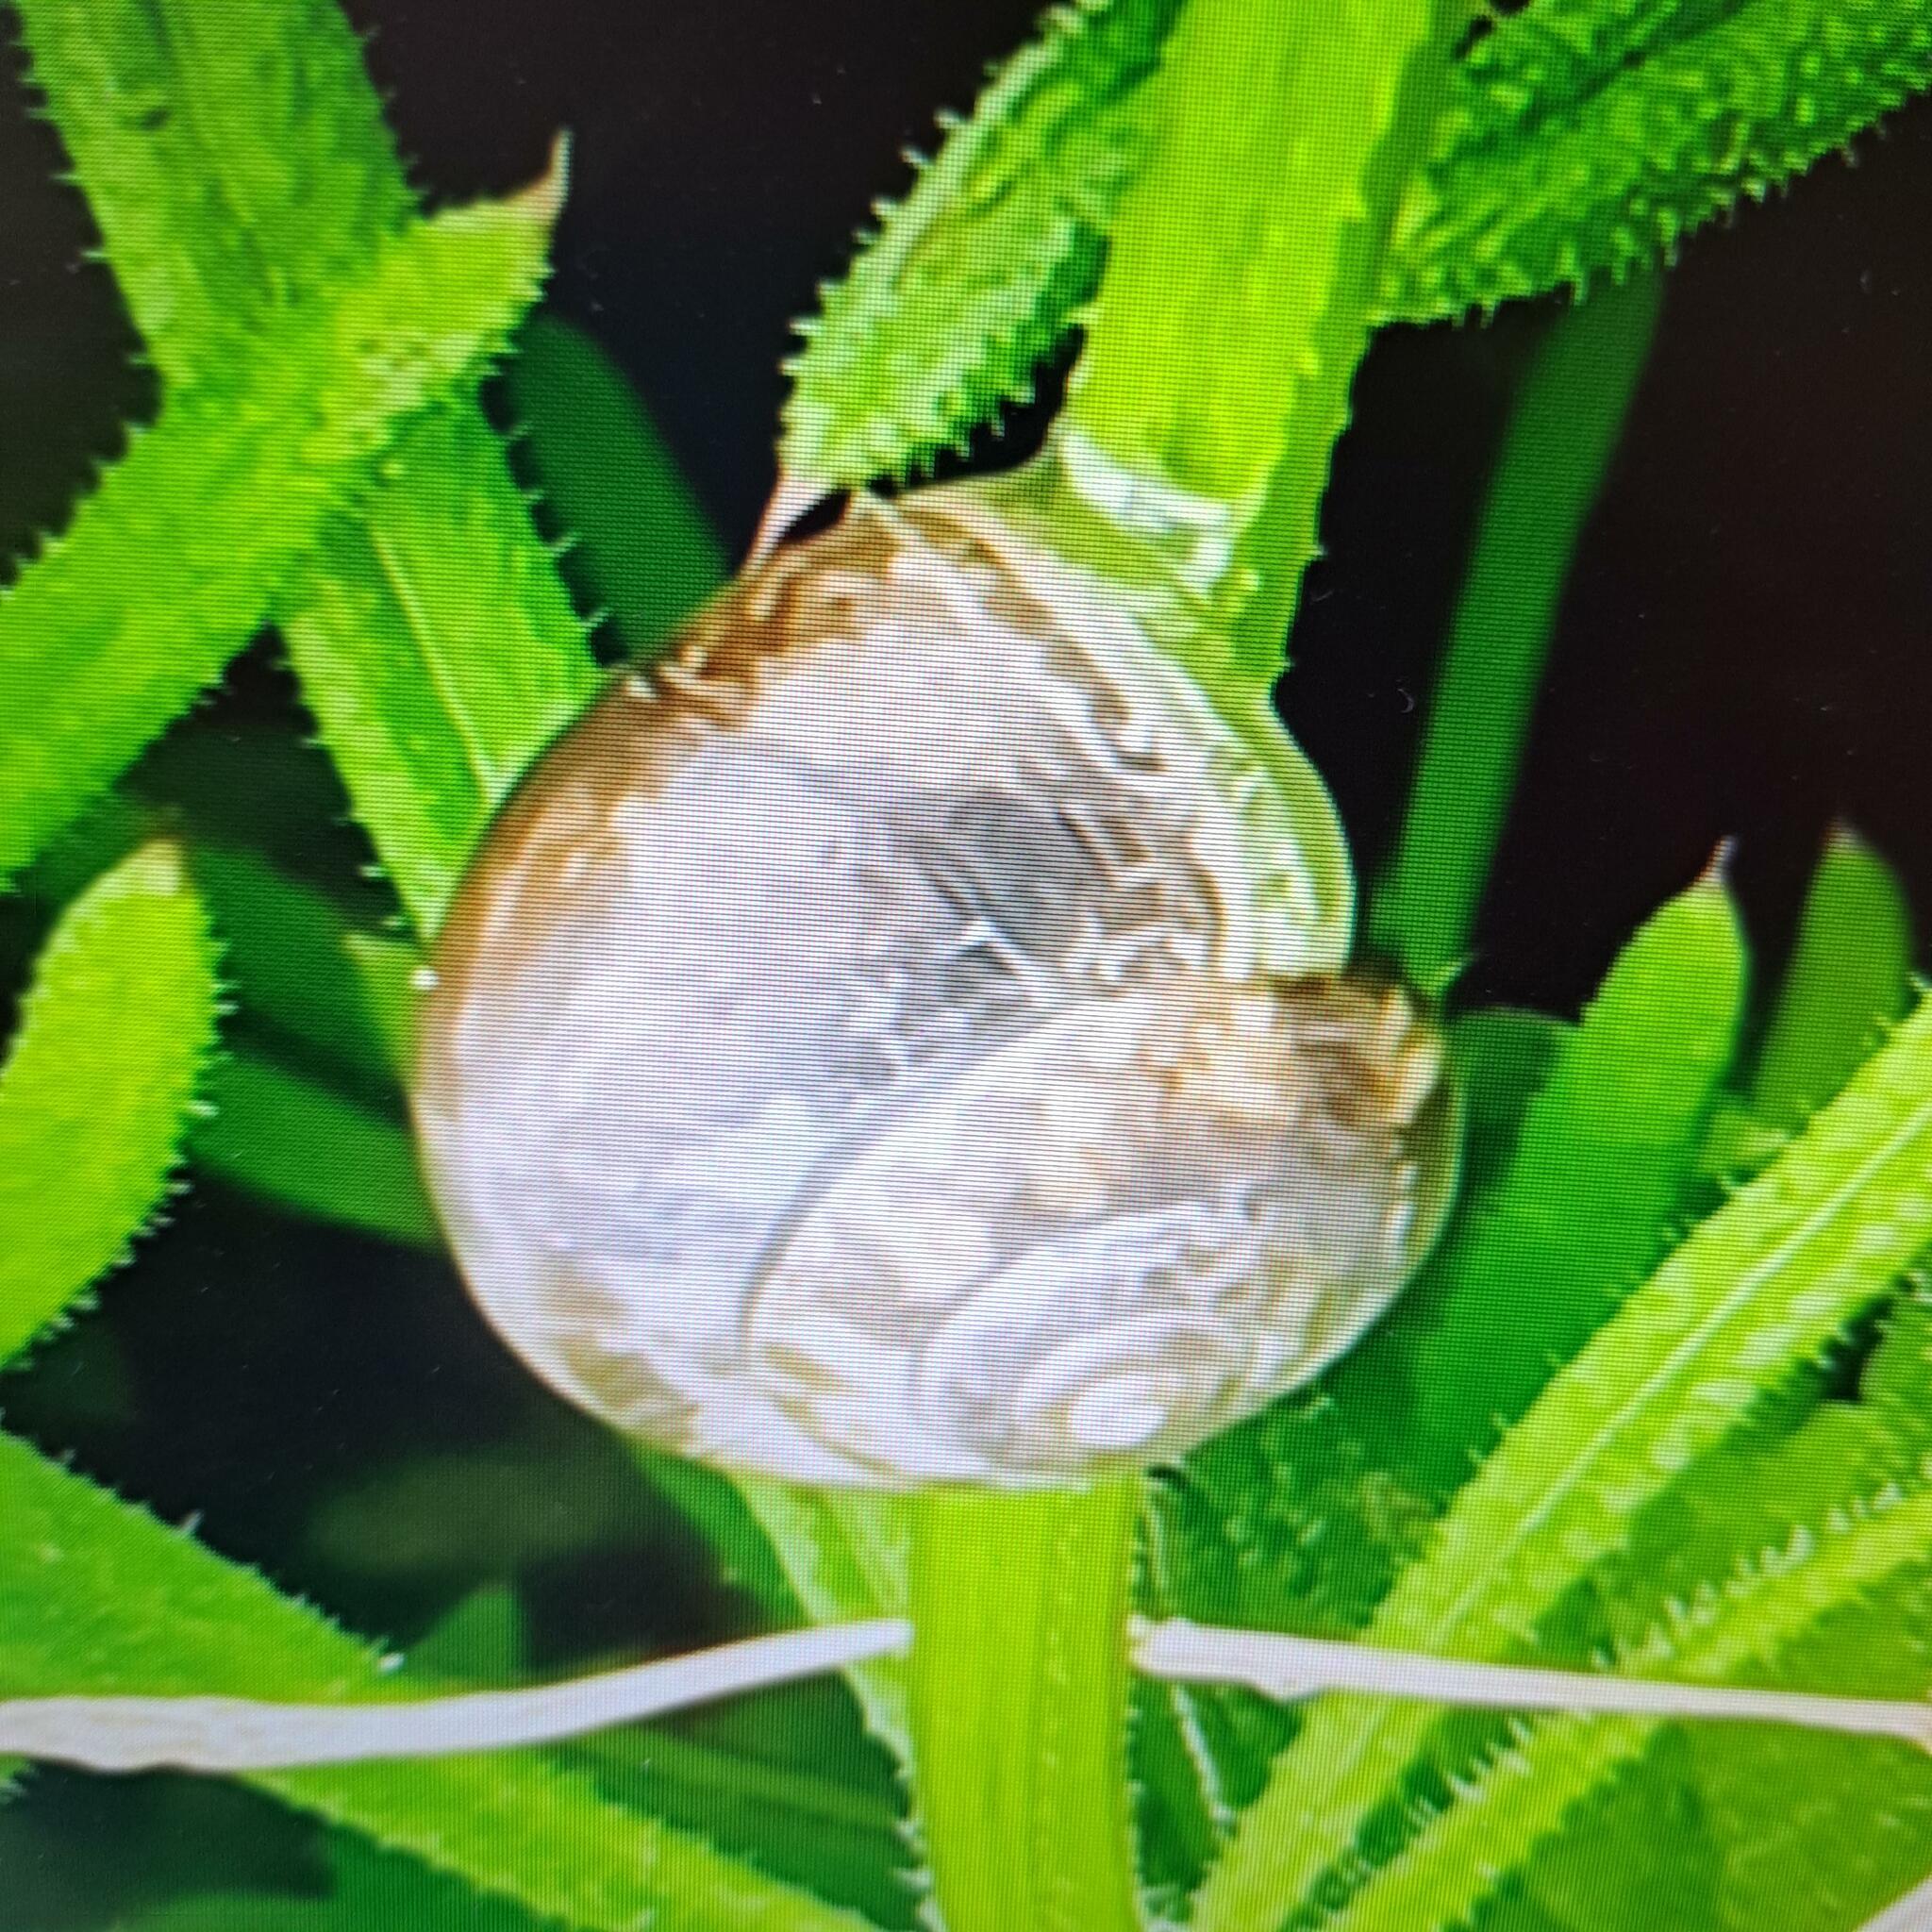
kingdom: Animalia
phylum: Mollusca
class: Gastropoda
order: Stylommatophora
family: Hygromiidae
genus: Monacha
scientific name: Monacha cantiana
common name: Kentish snail
